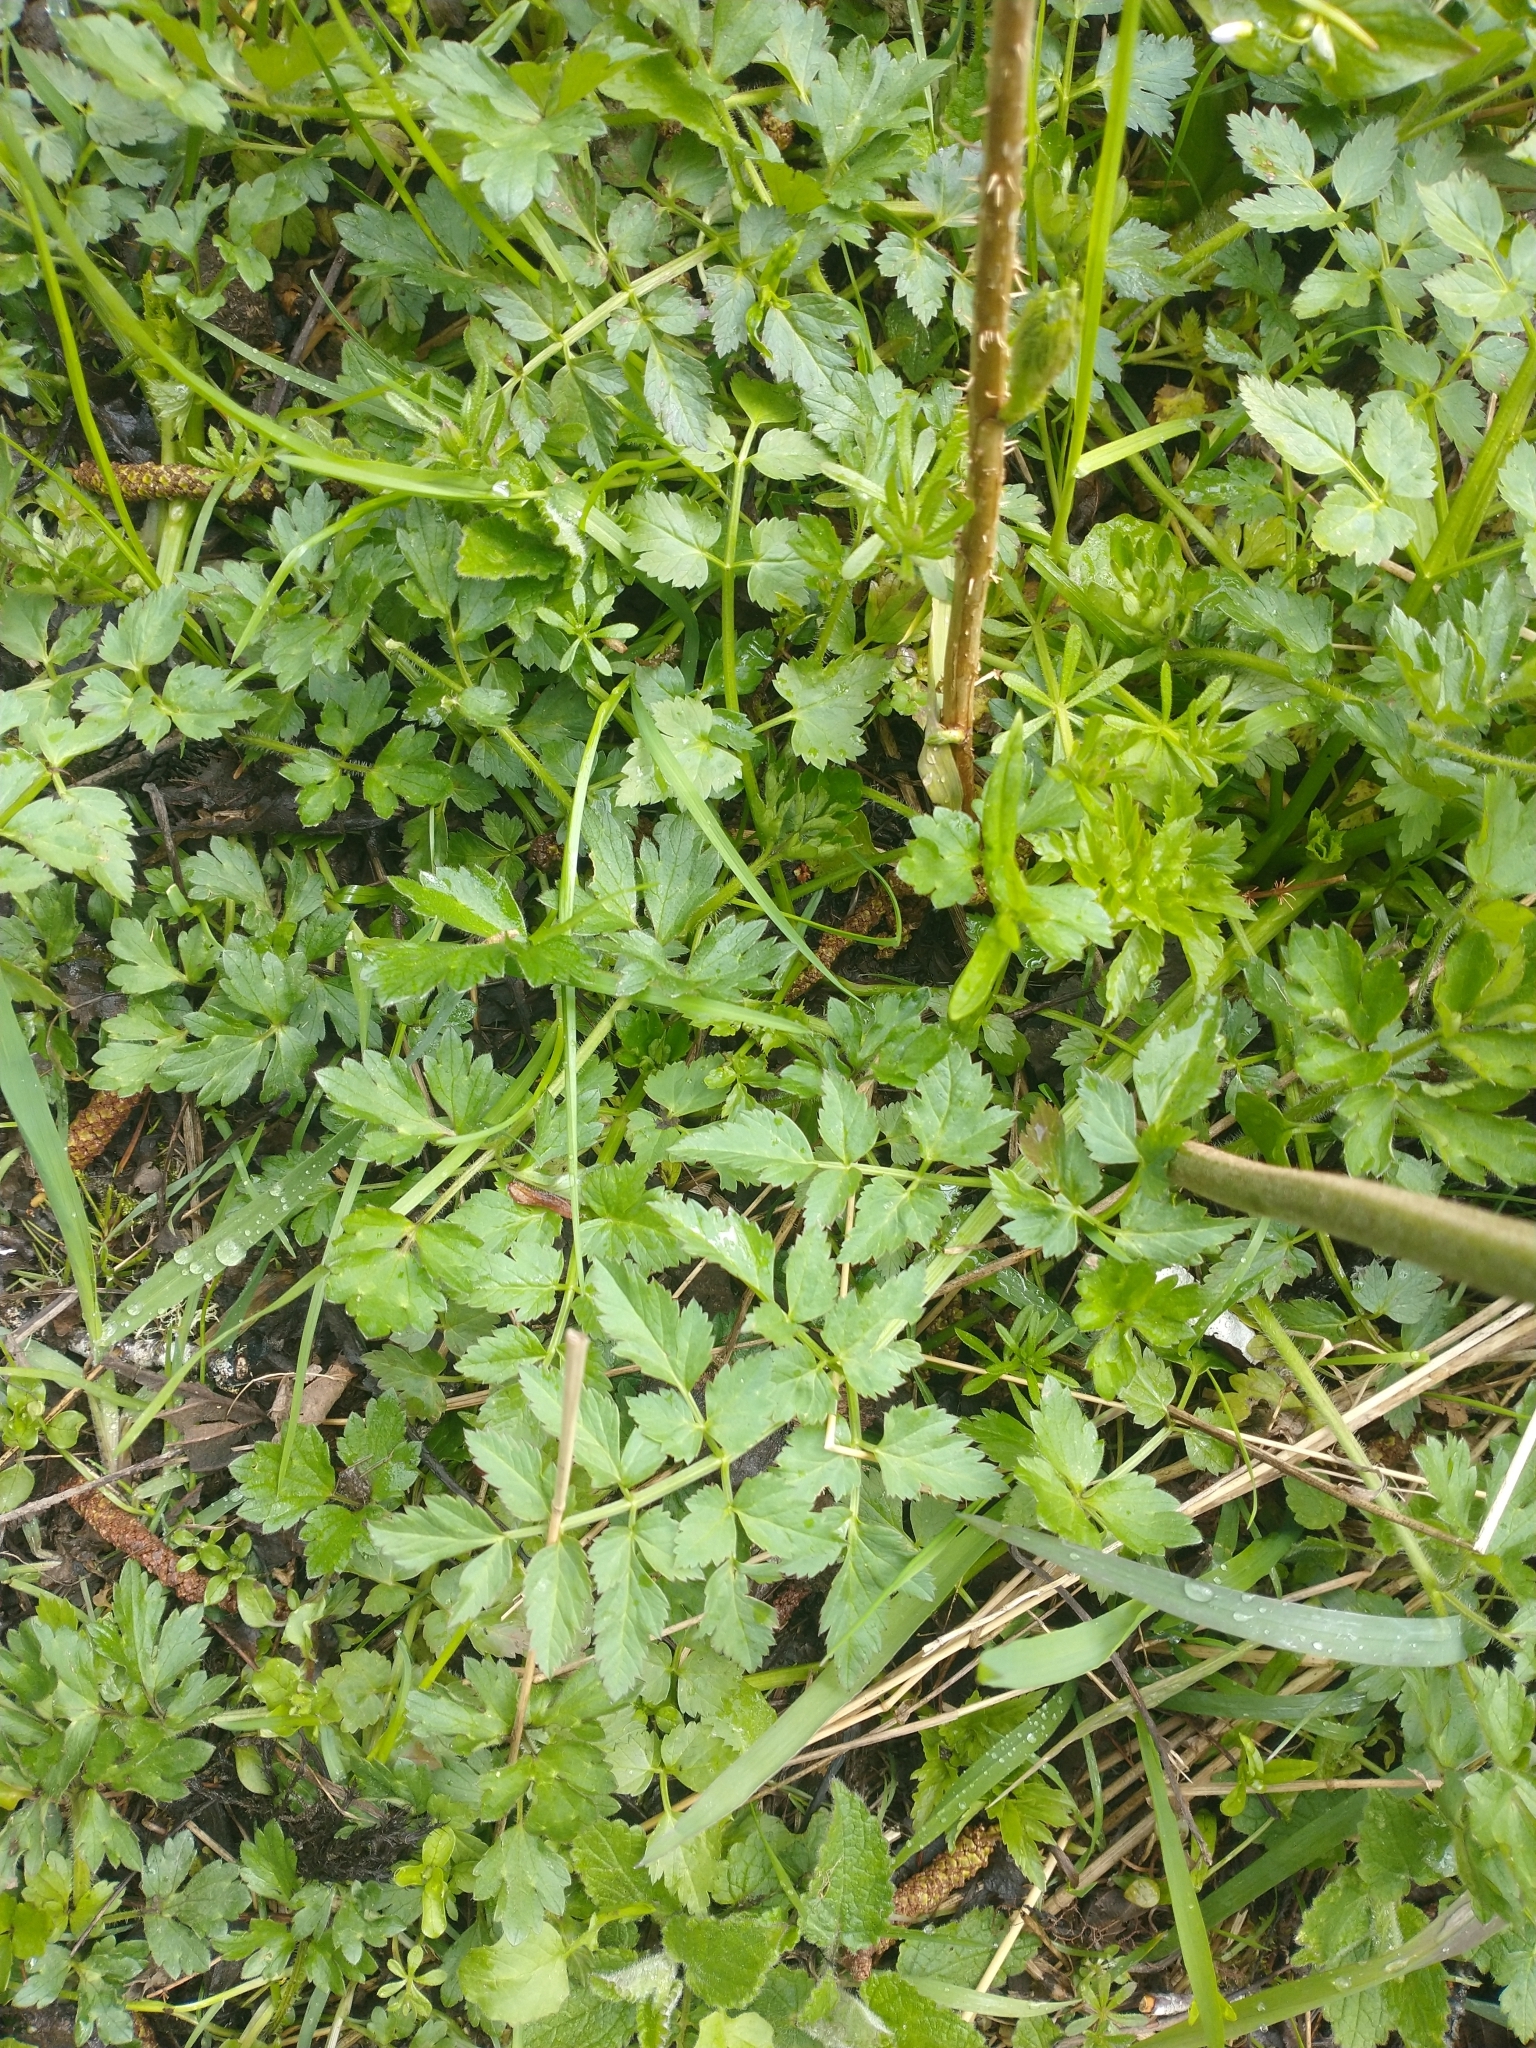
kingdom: Plantae
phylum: Tracheophyta
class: Magnoliopsida
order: Apiales
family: Apiaceae
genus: Oenanthe
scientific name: Oenanthe sarmentosa
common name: American water-parsley
